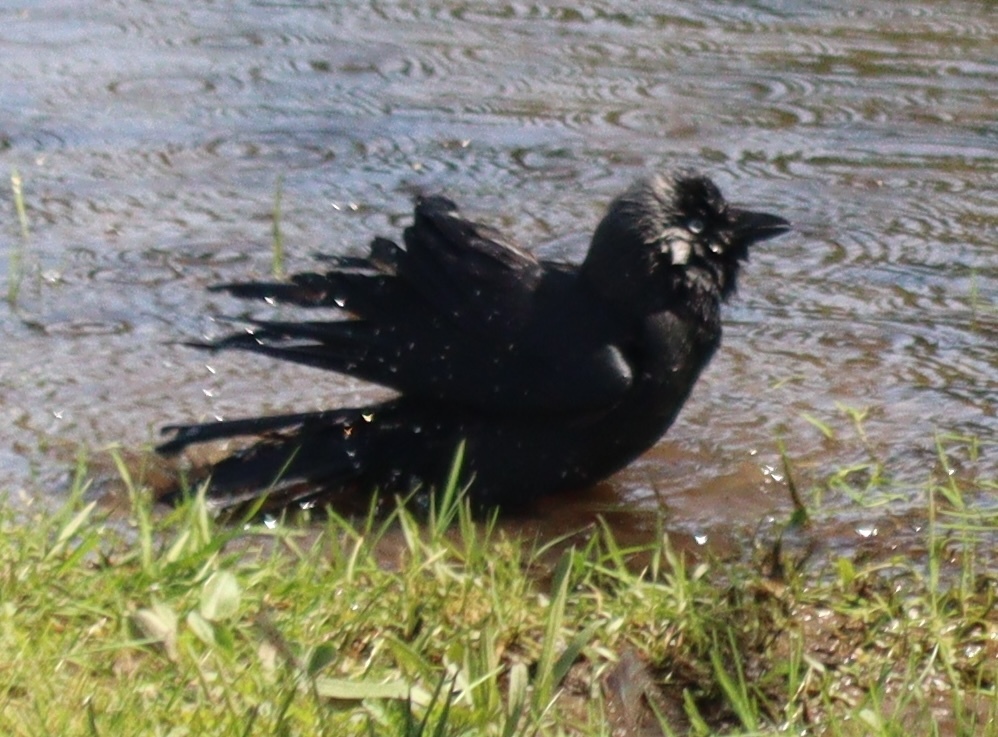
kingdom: Animalia
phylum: Chordata
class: Aves
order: Passeriformes
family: Corvidae
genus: Coloeus
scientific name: Coloeus monedula
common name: Western jackdaw
